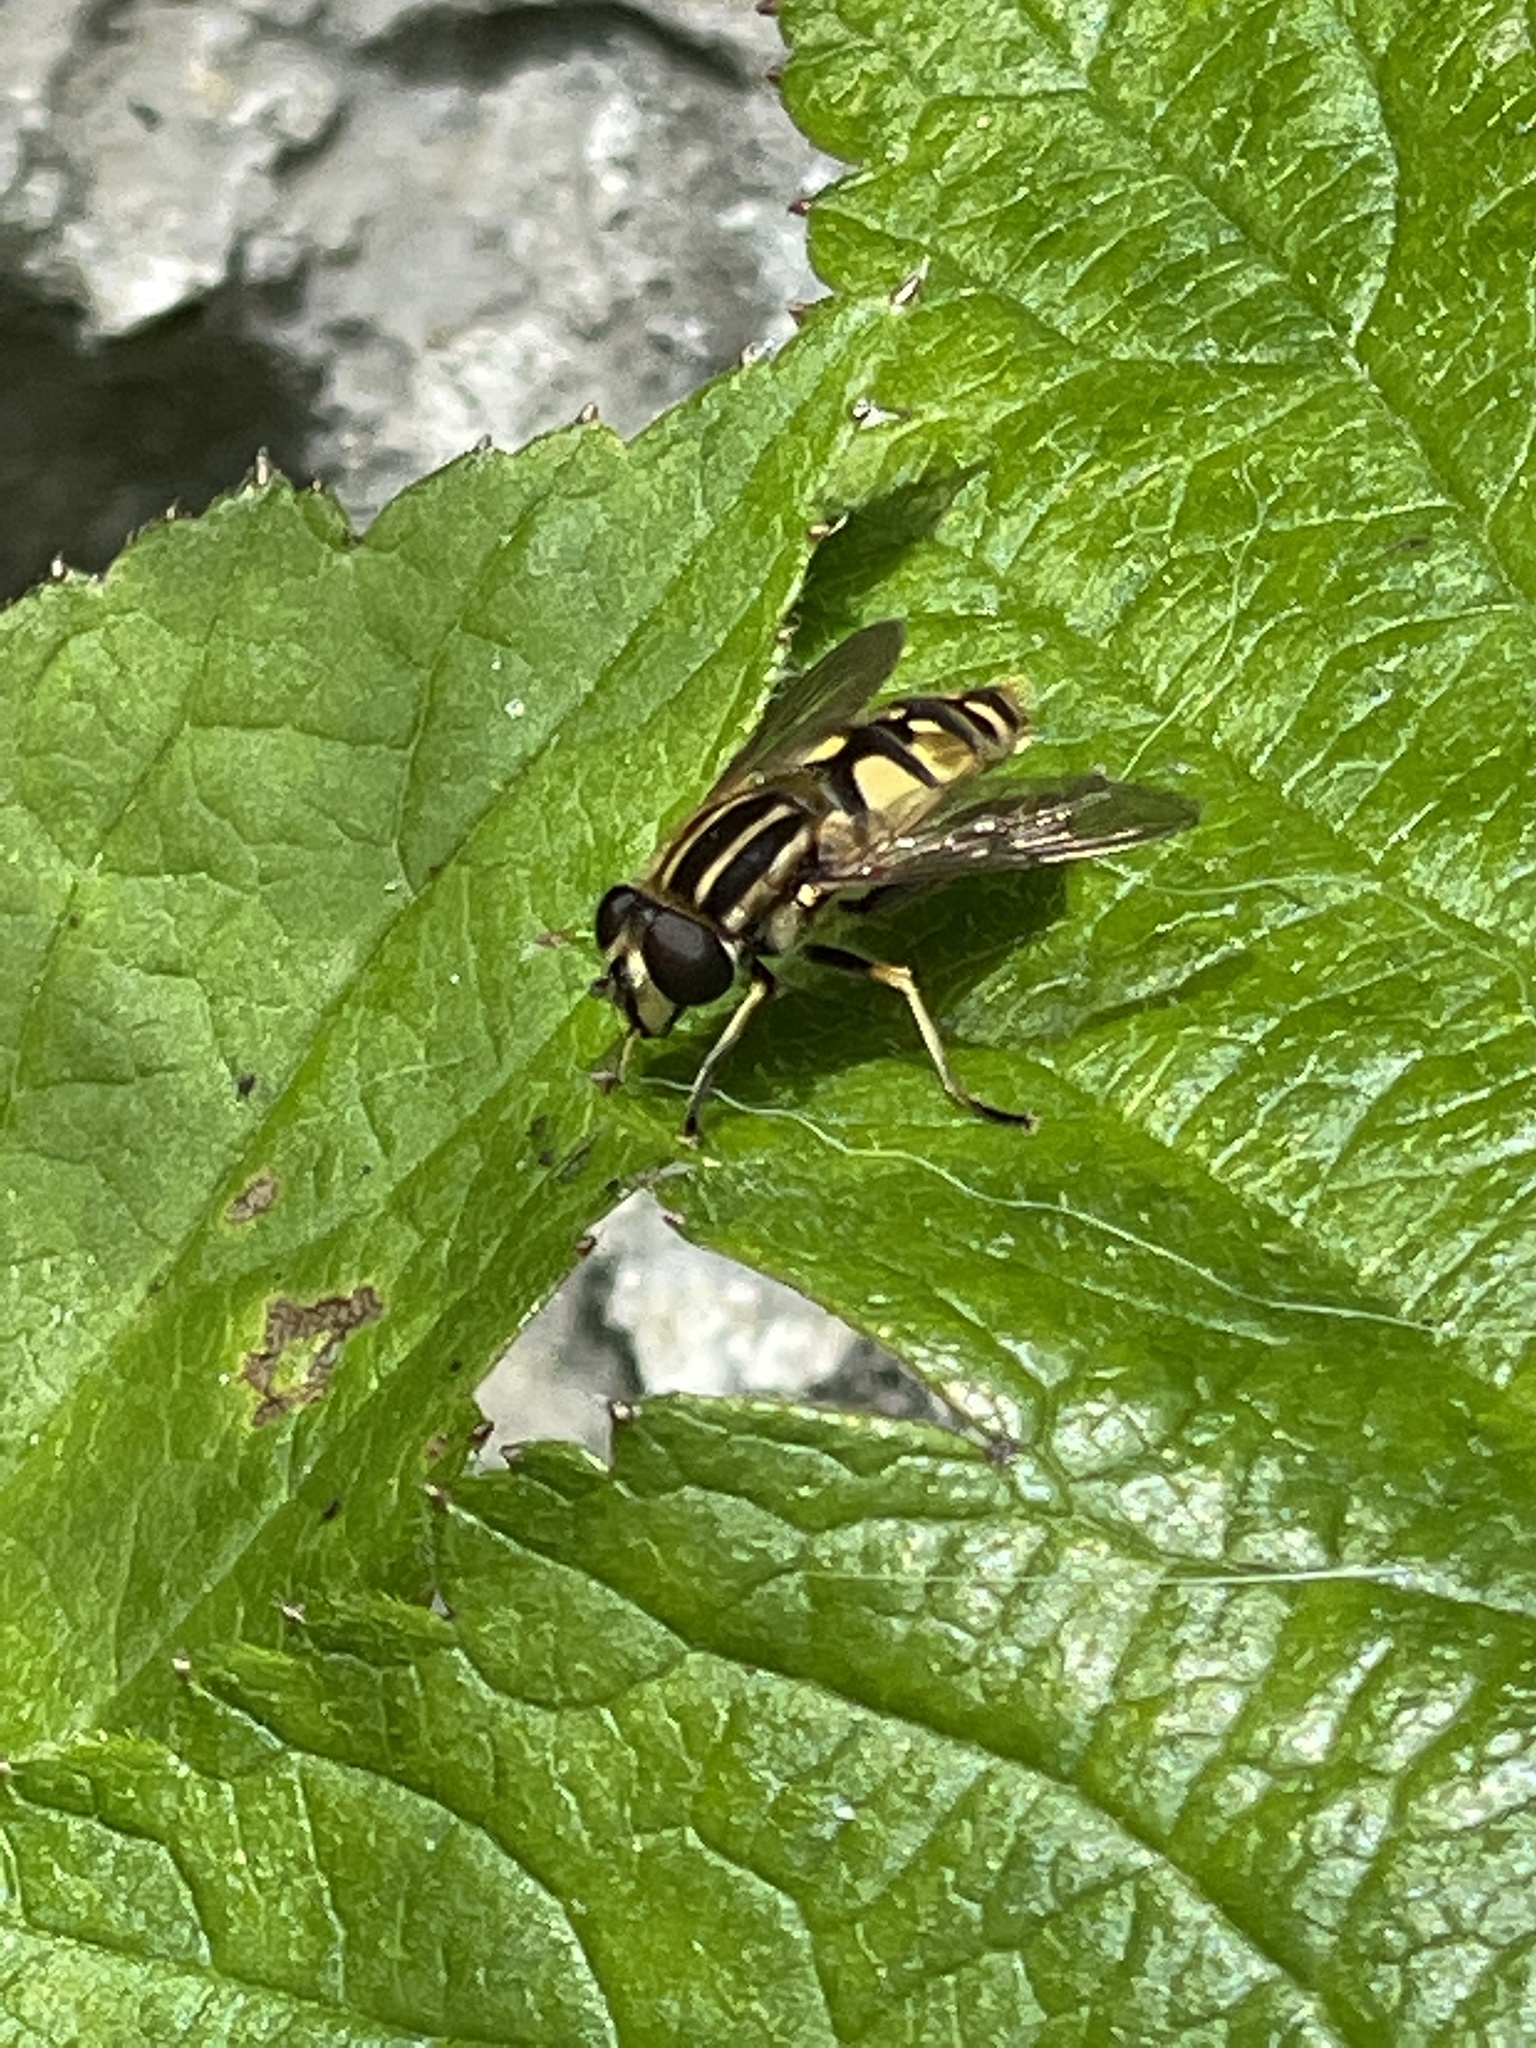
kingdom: Animalia
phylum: Arthropoda
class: Insecta
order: Diptera
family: Syrphidae
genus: Helophilus
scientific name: Helophilus pendulus
